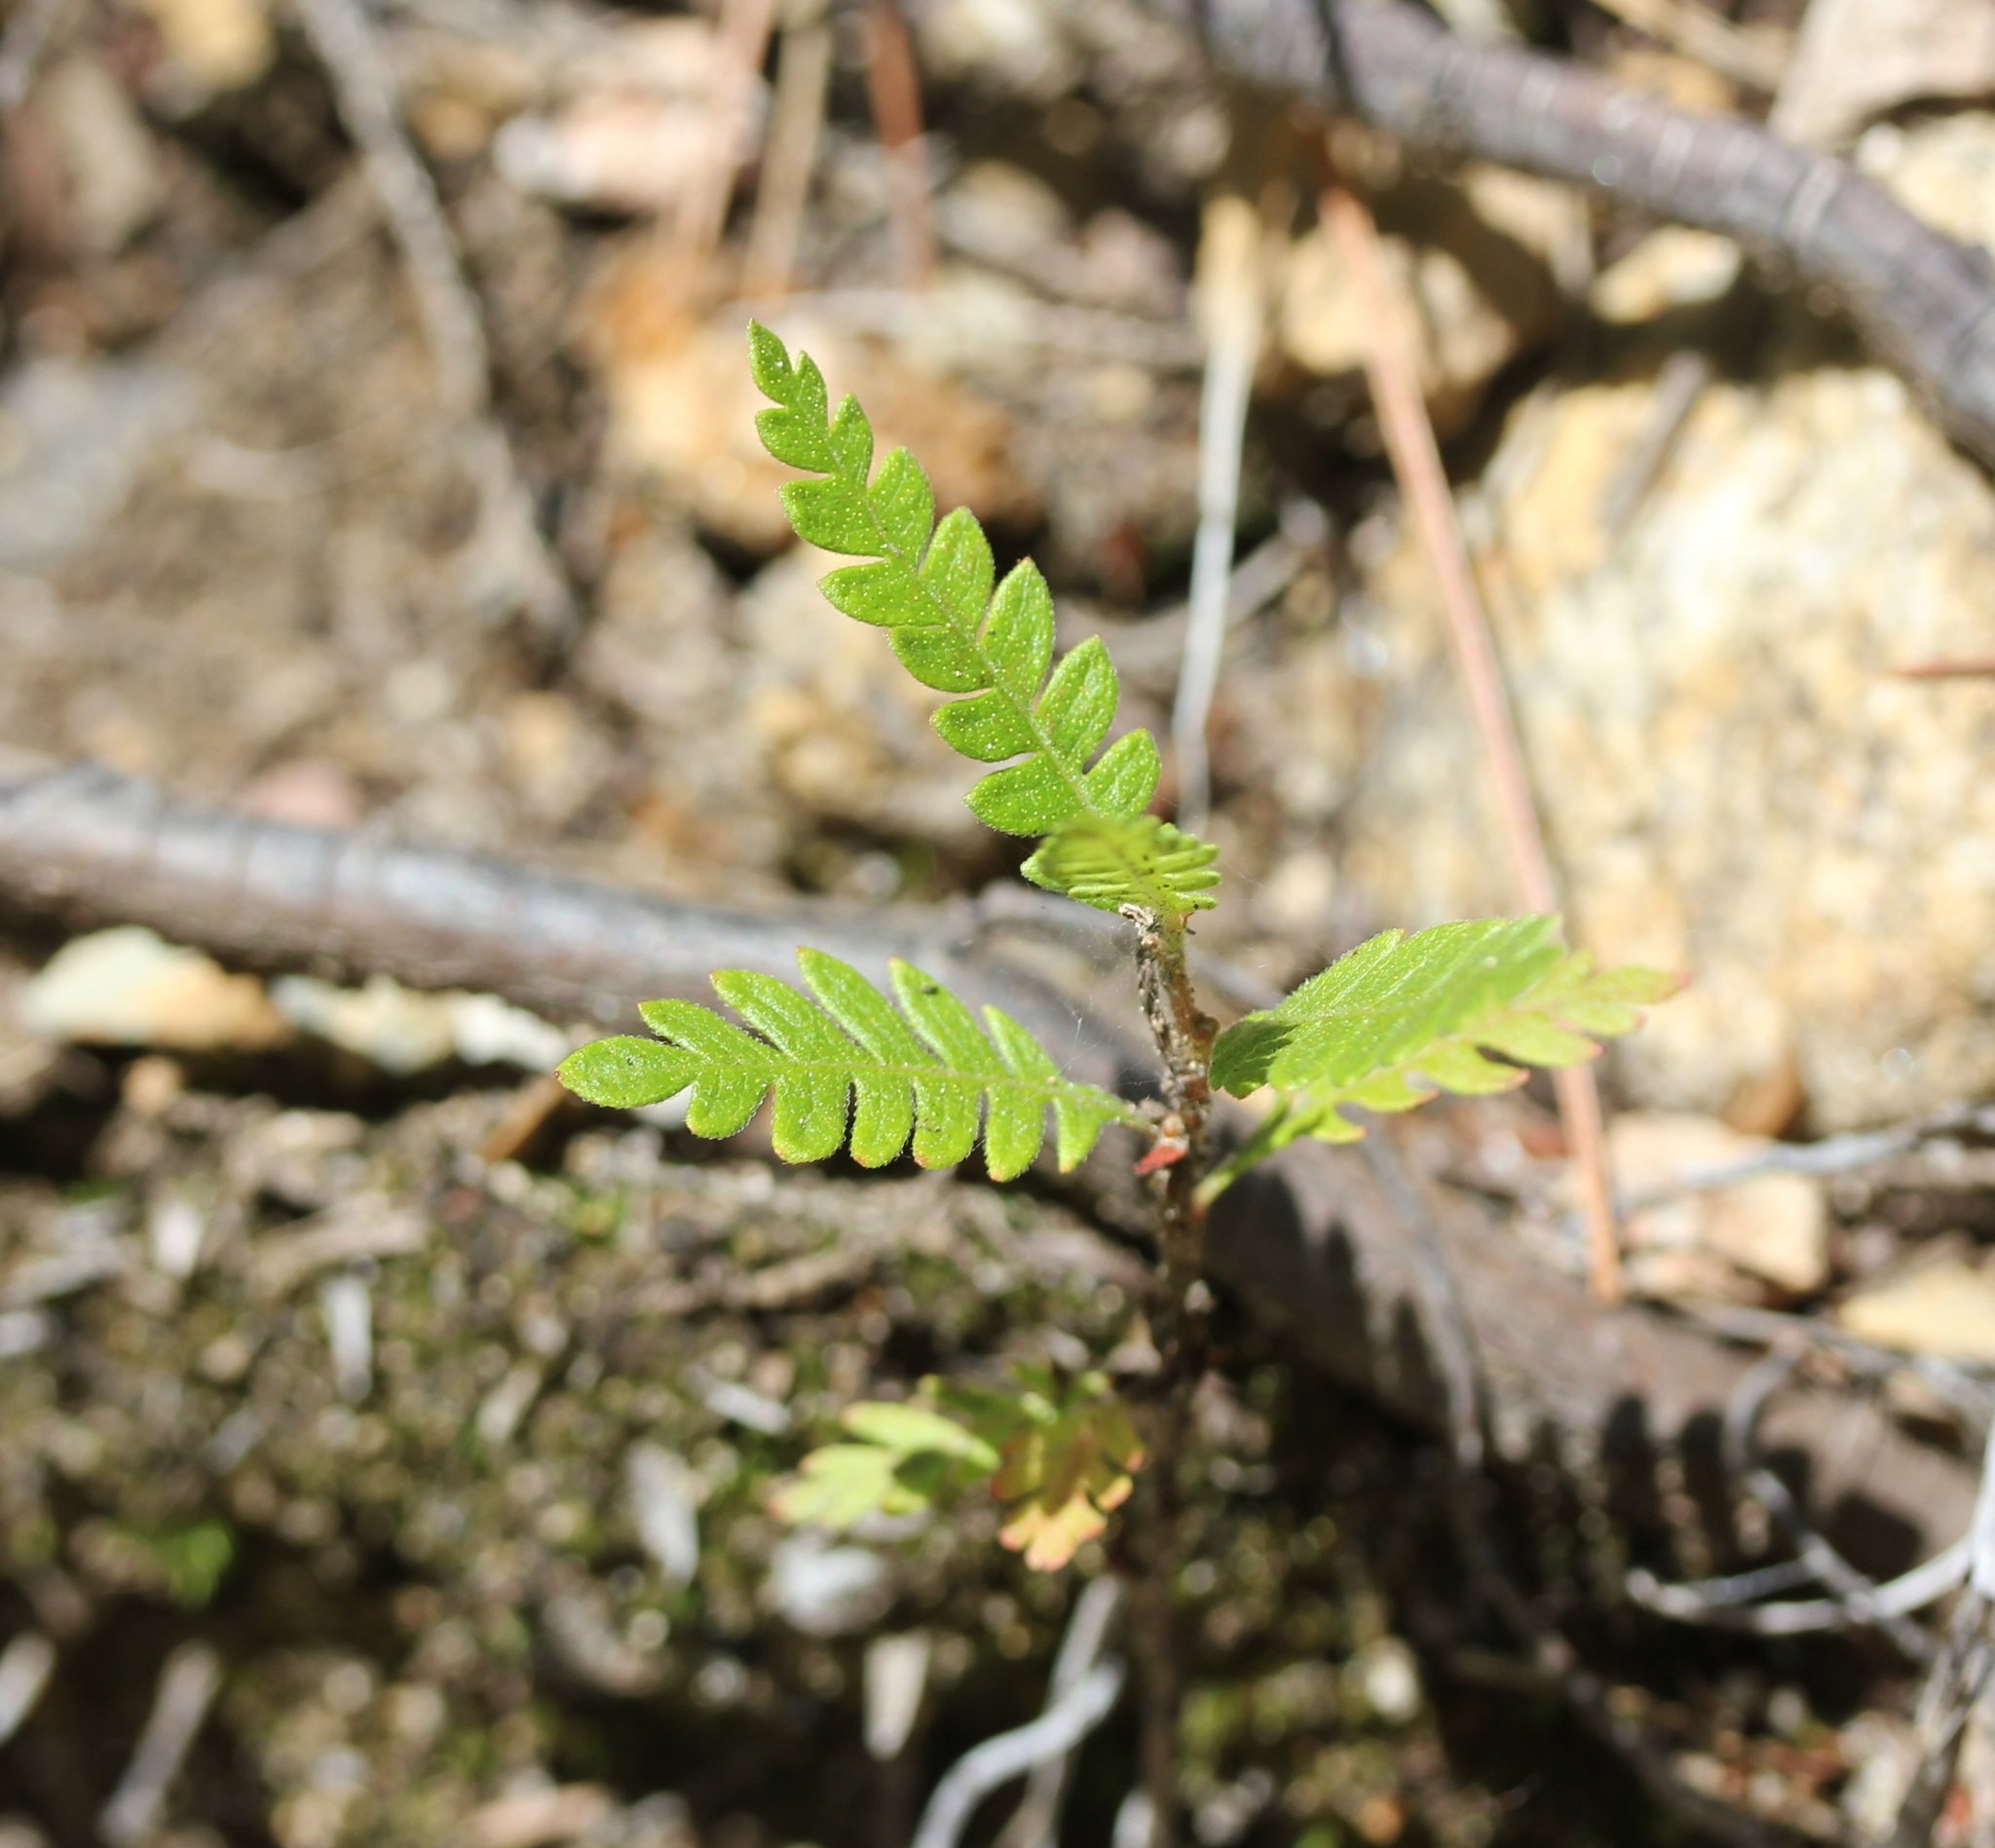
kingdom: Plantae
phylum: Tracheophyta
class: Magnoliopsida
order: Fagales
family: Myricaceae
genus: Comptonia
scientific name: Comptonia peregrina
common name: Sweet-fern
